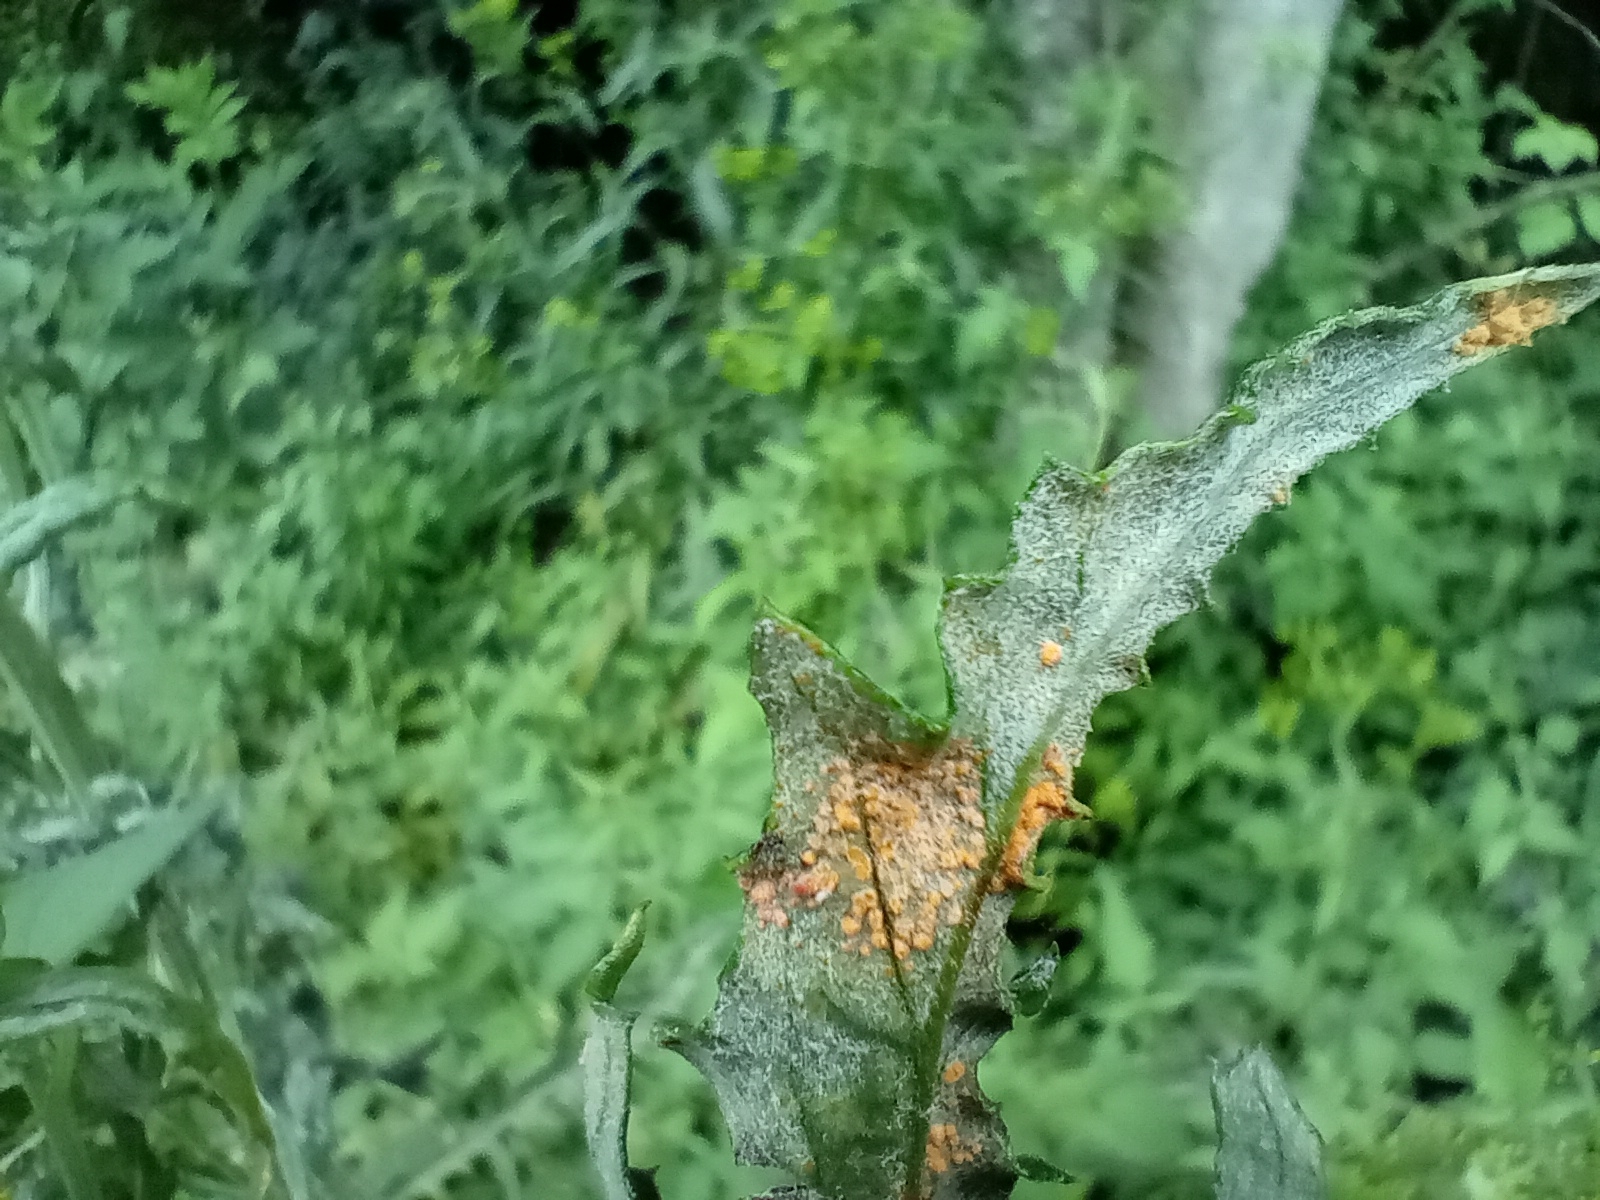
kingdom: Fungi
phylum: Basidiomycota
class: Pucciniomycetes
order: Pucciniales
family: Pucciniaceae
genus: Puccinia
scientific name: Puccinia lagenophorae
